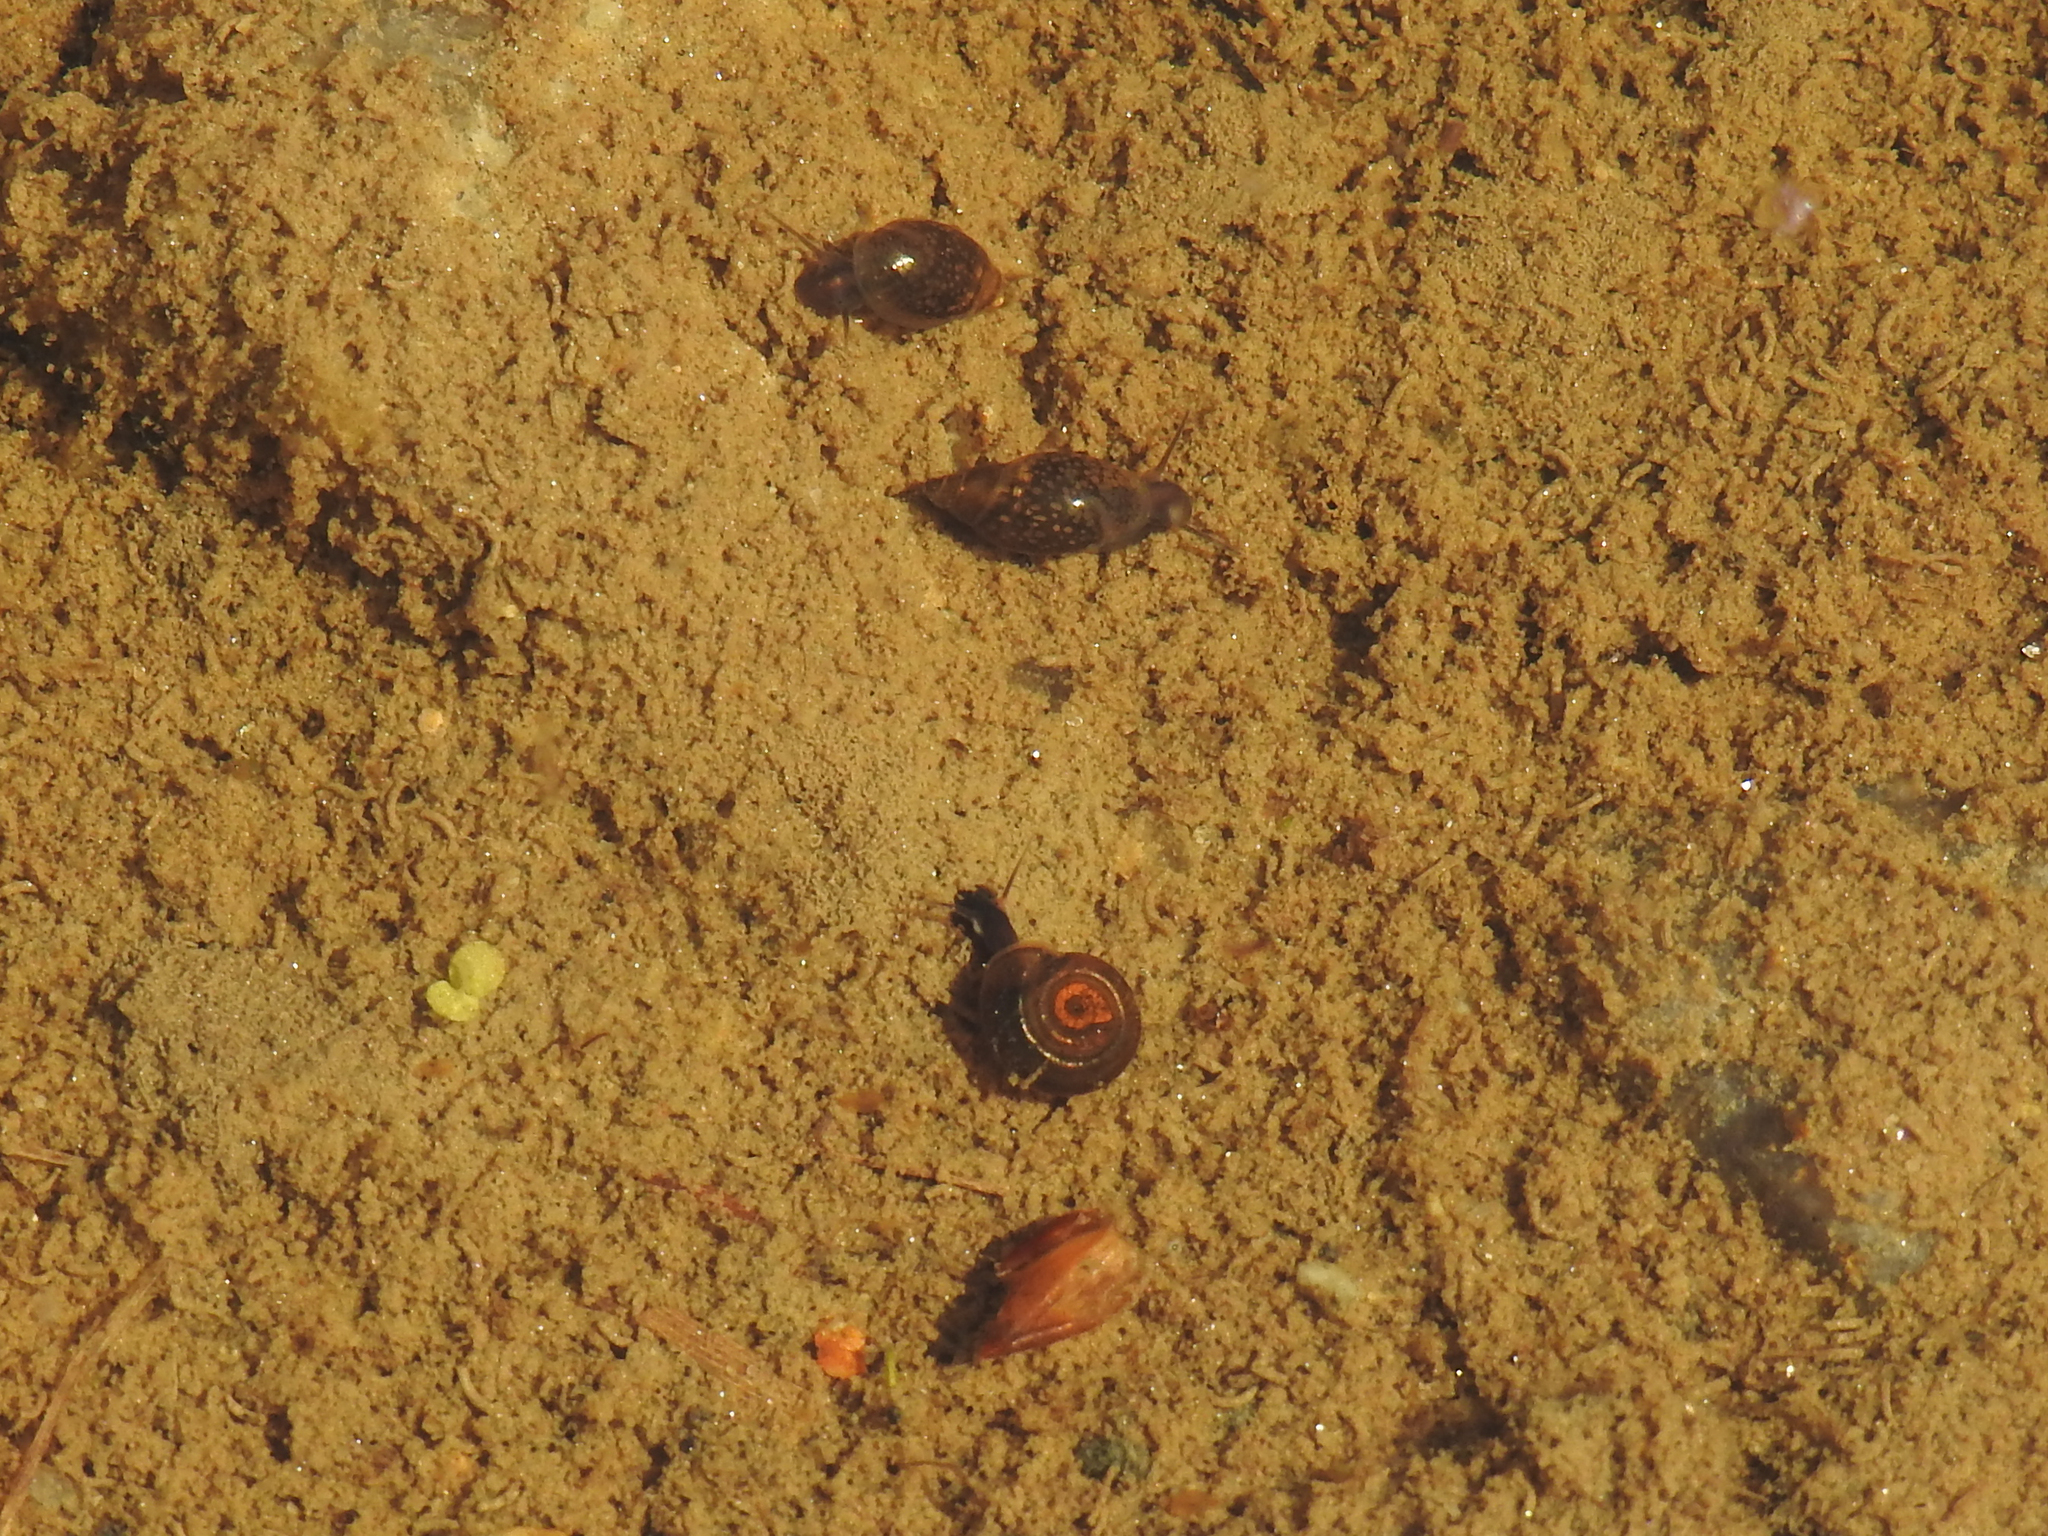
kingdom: Animalia
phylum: Mollusca
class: Gastropoda
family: Planorbidae
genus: Planorbula
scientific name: Planorbula armigera
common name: Thicklip ramshorn
